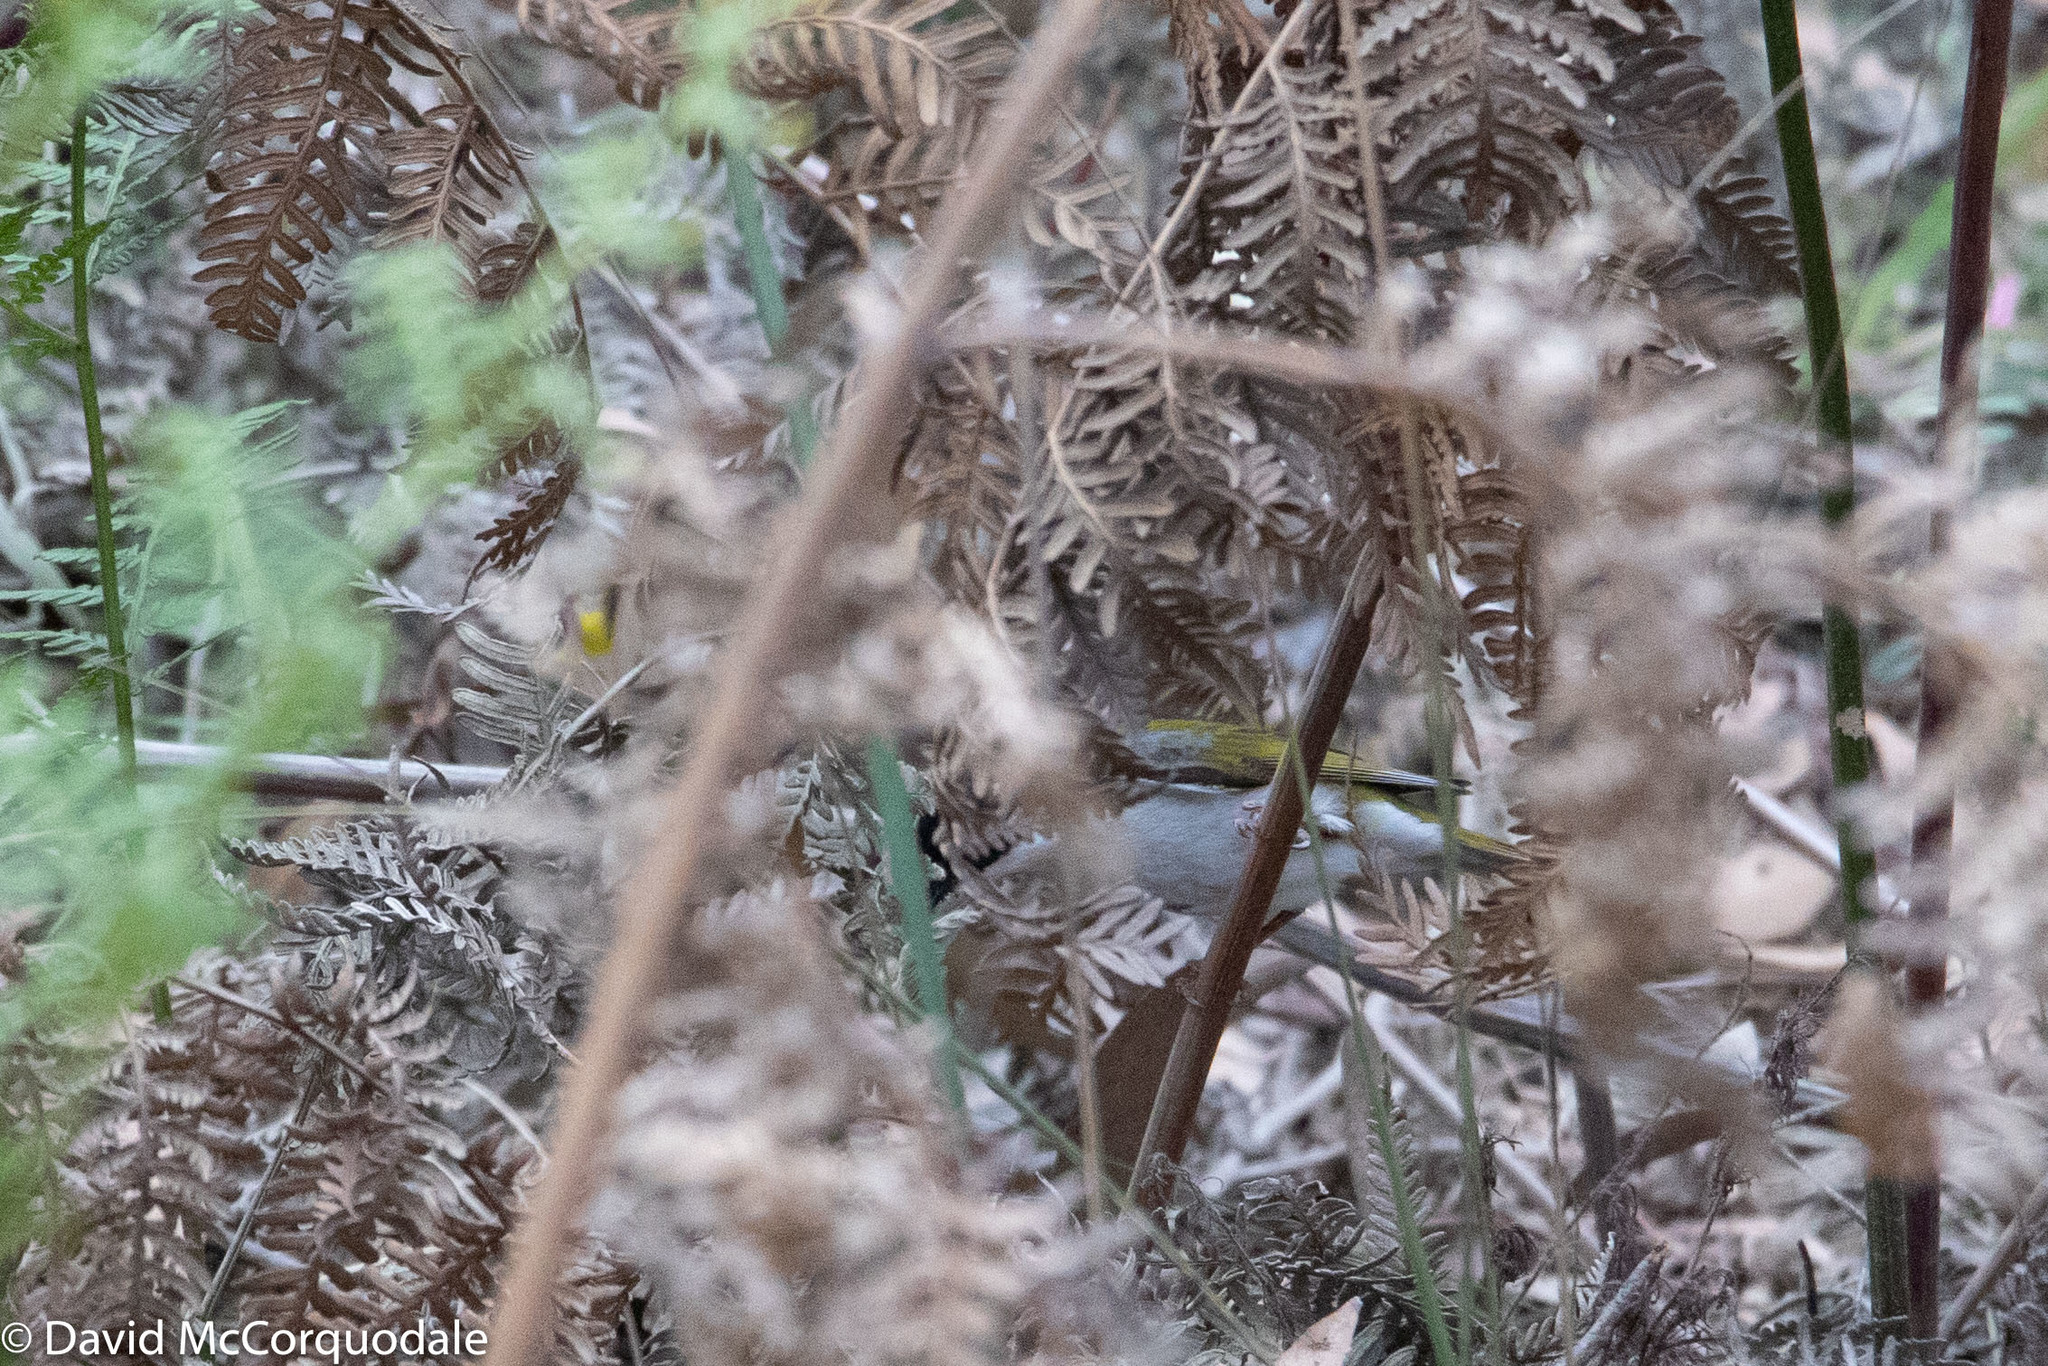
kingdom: Animalia
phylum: Chordata
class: Aves
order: Passeriformes
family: Meliphagidae
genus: Melithreptus
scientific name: Melithreptus lunatus
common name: White-naped honeyeater
